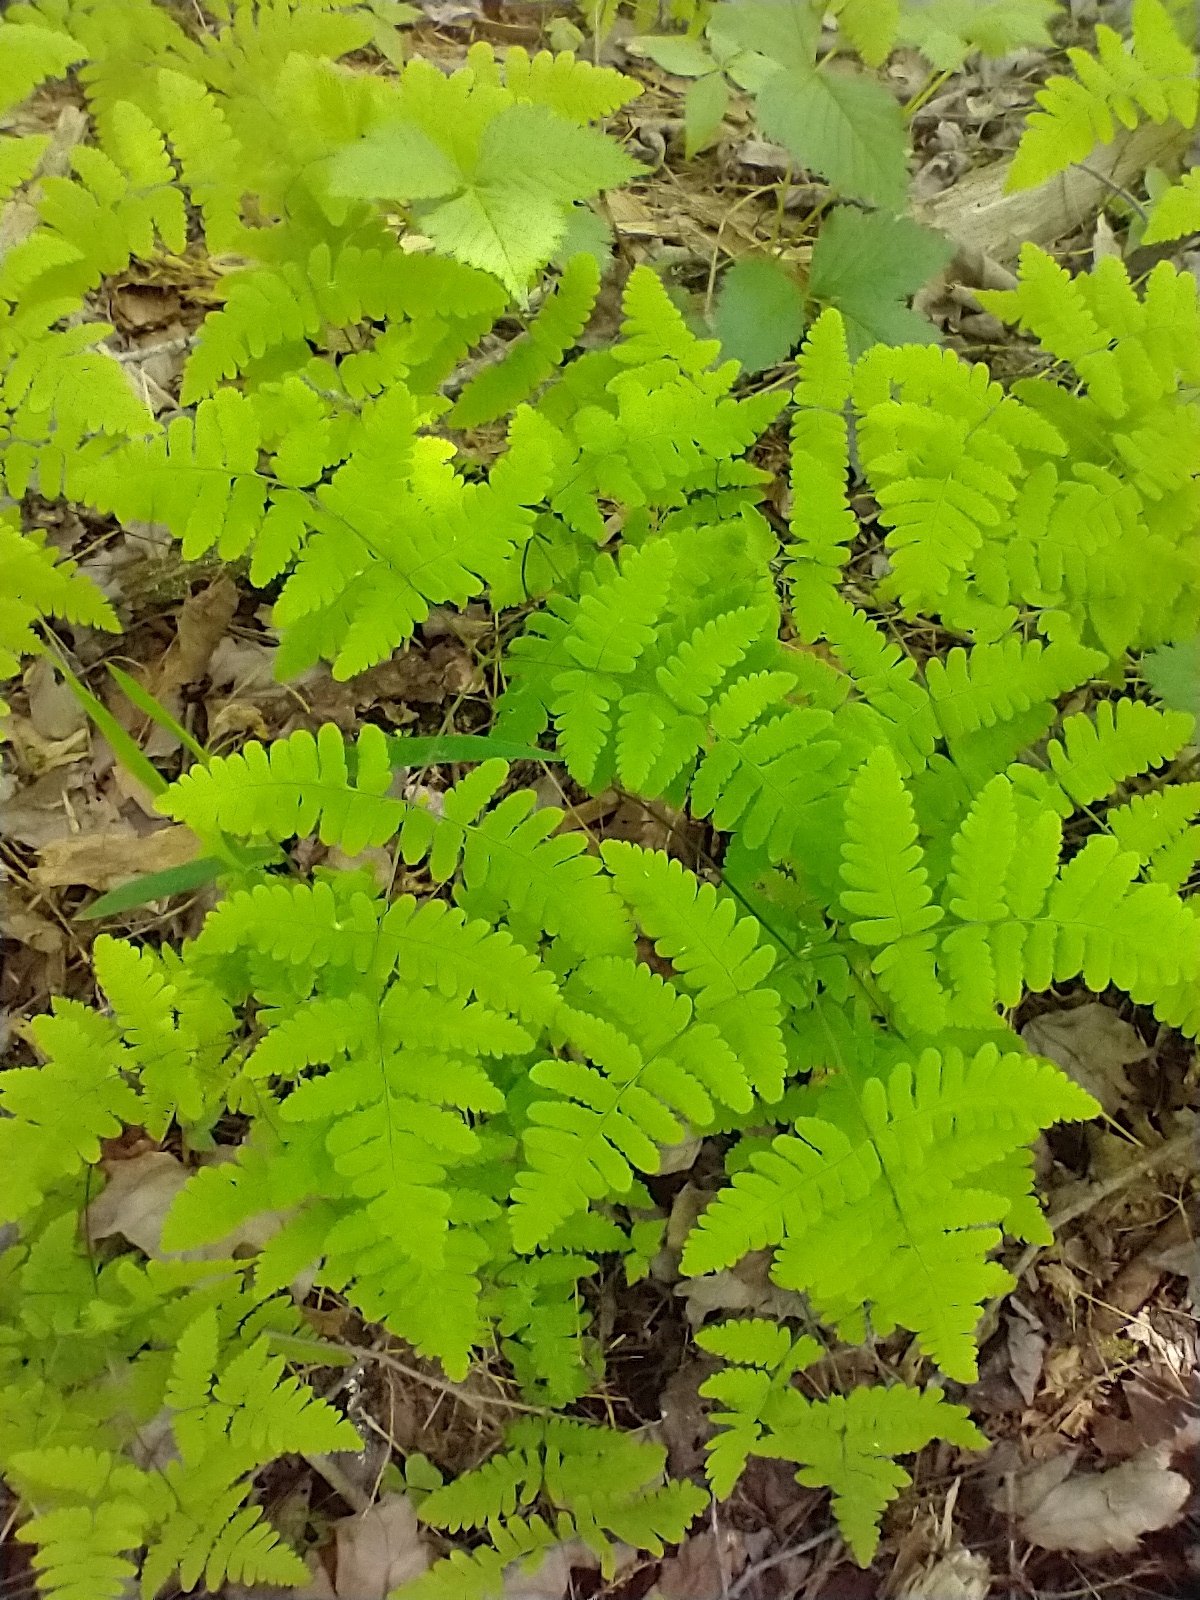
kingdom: Plantae
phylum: Tracheophyta
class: Polypodiopsida
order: Polypodiales
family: Cystopteridaceae
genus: Gymnocarpium
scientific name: Gymnocarpium dryopteris
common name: Oak fern
